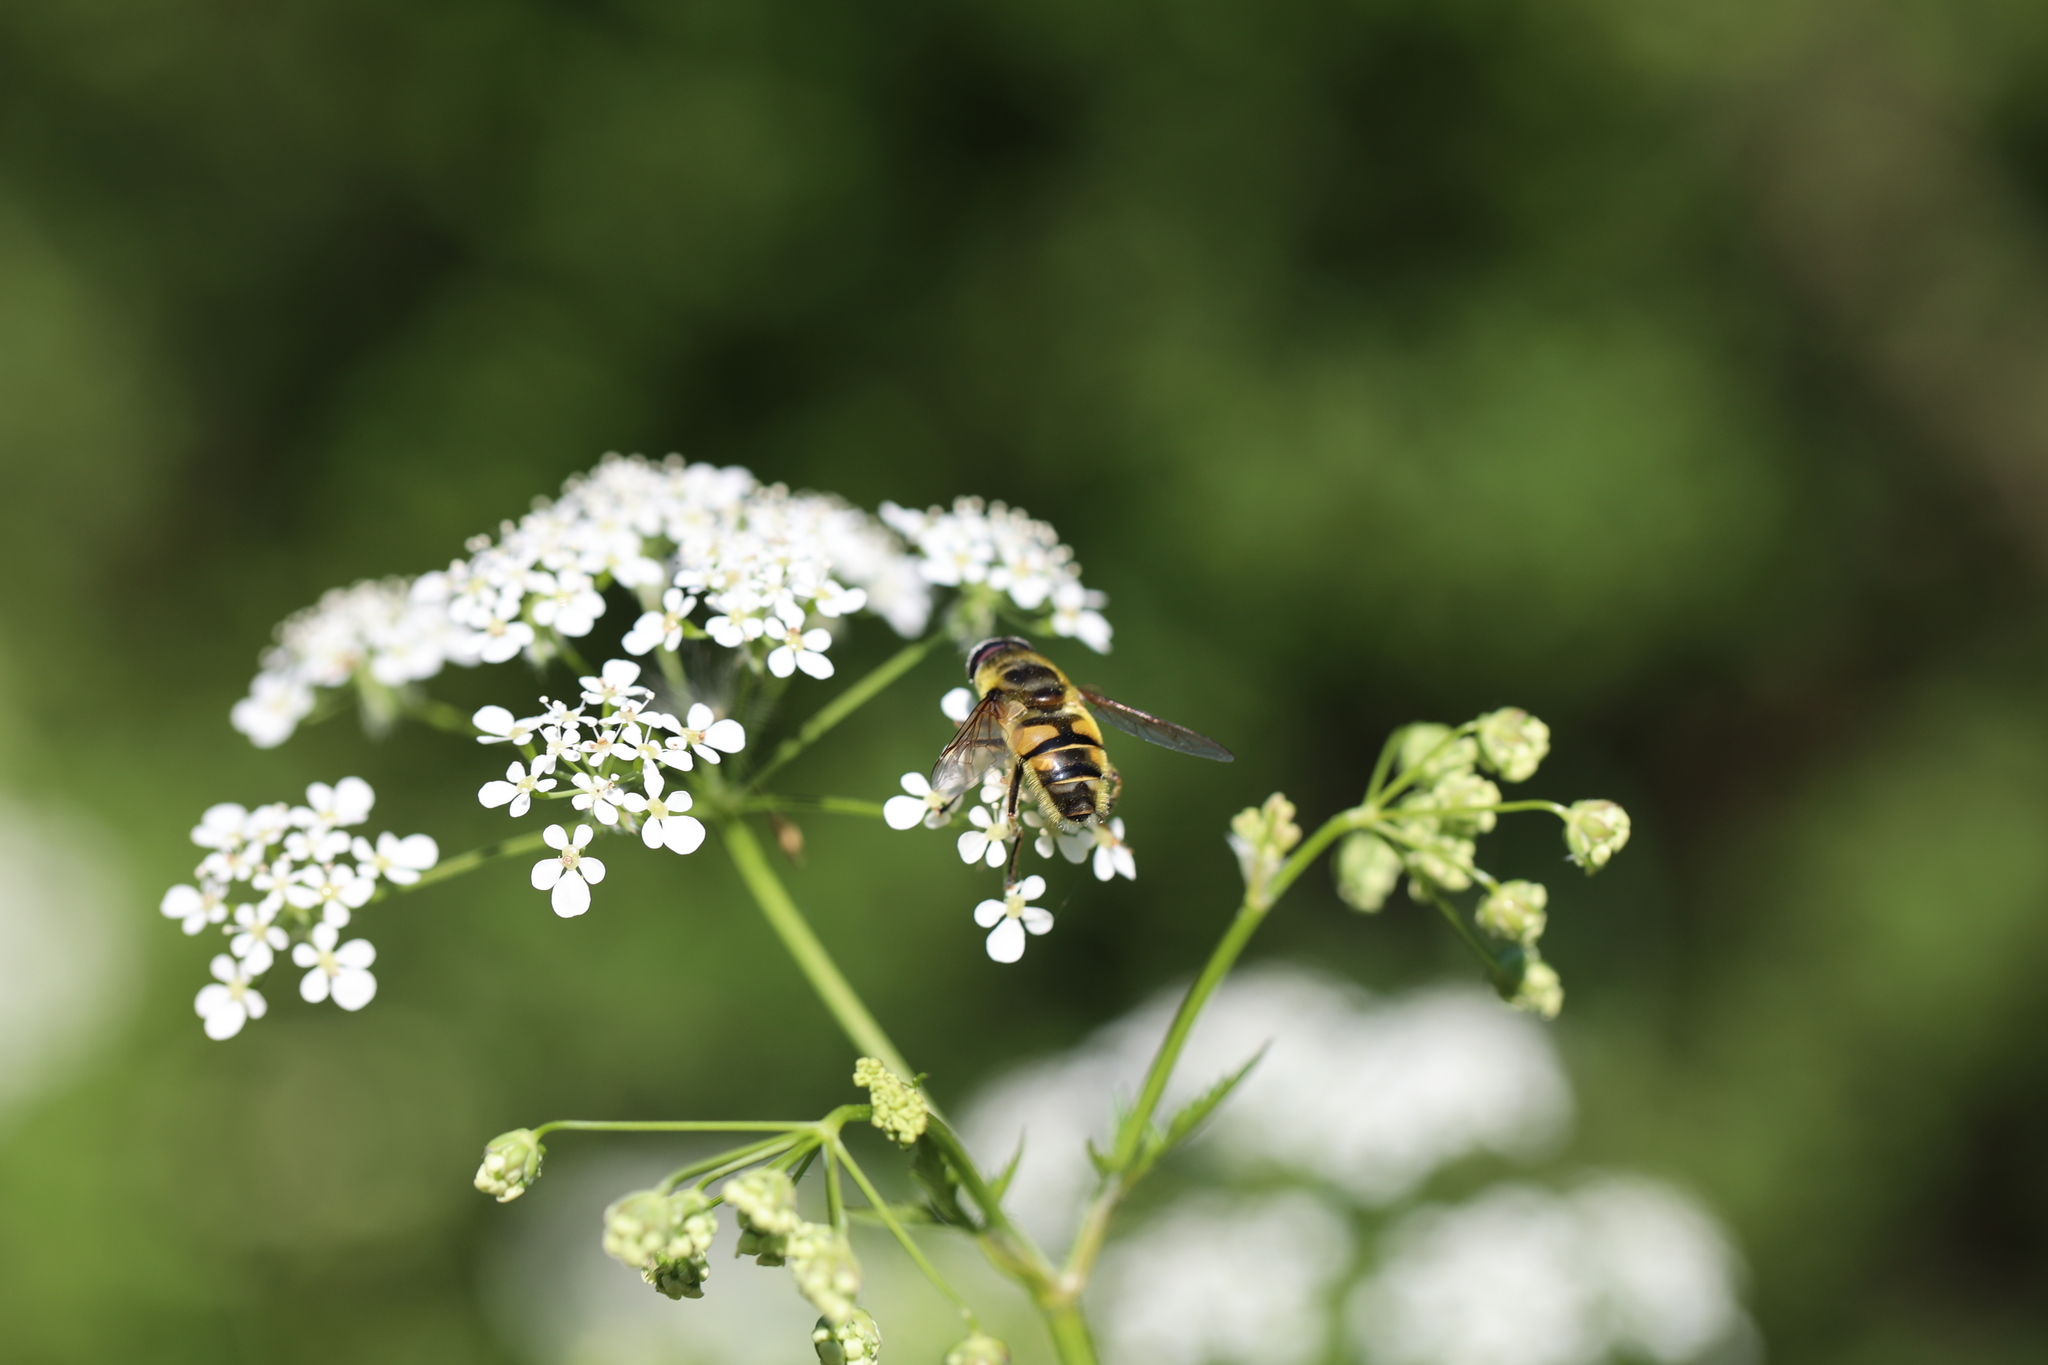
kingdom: Animalia
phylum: Arthropoda
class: Insecta
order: Diptera
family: Syrphidae
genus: Myathropa
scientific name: Myathropa florea
